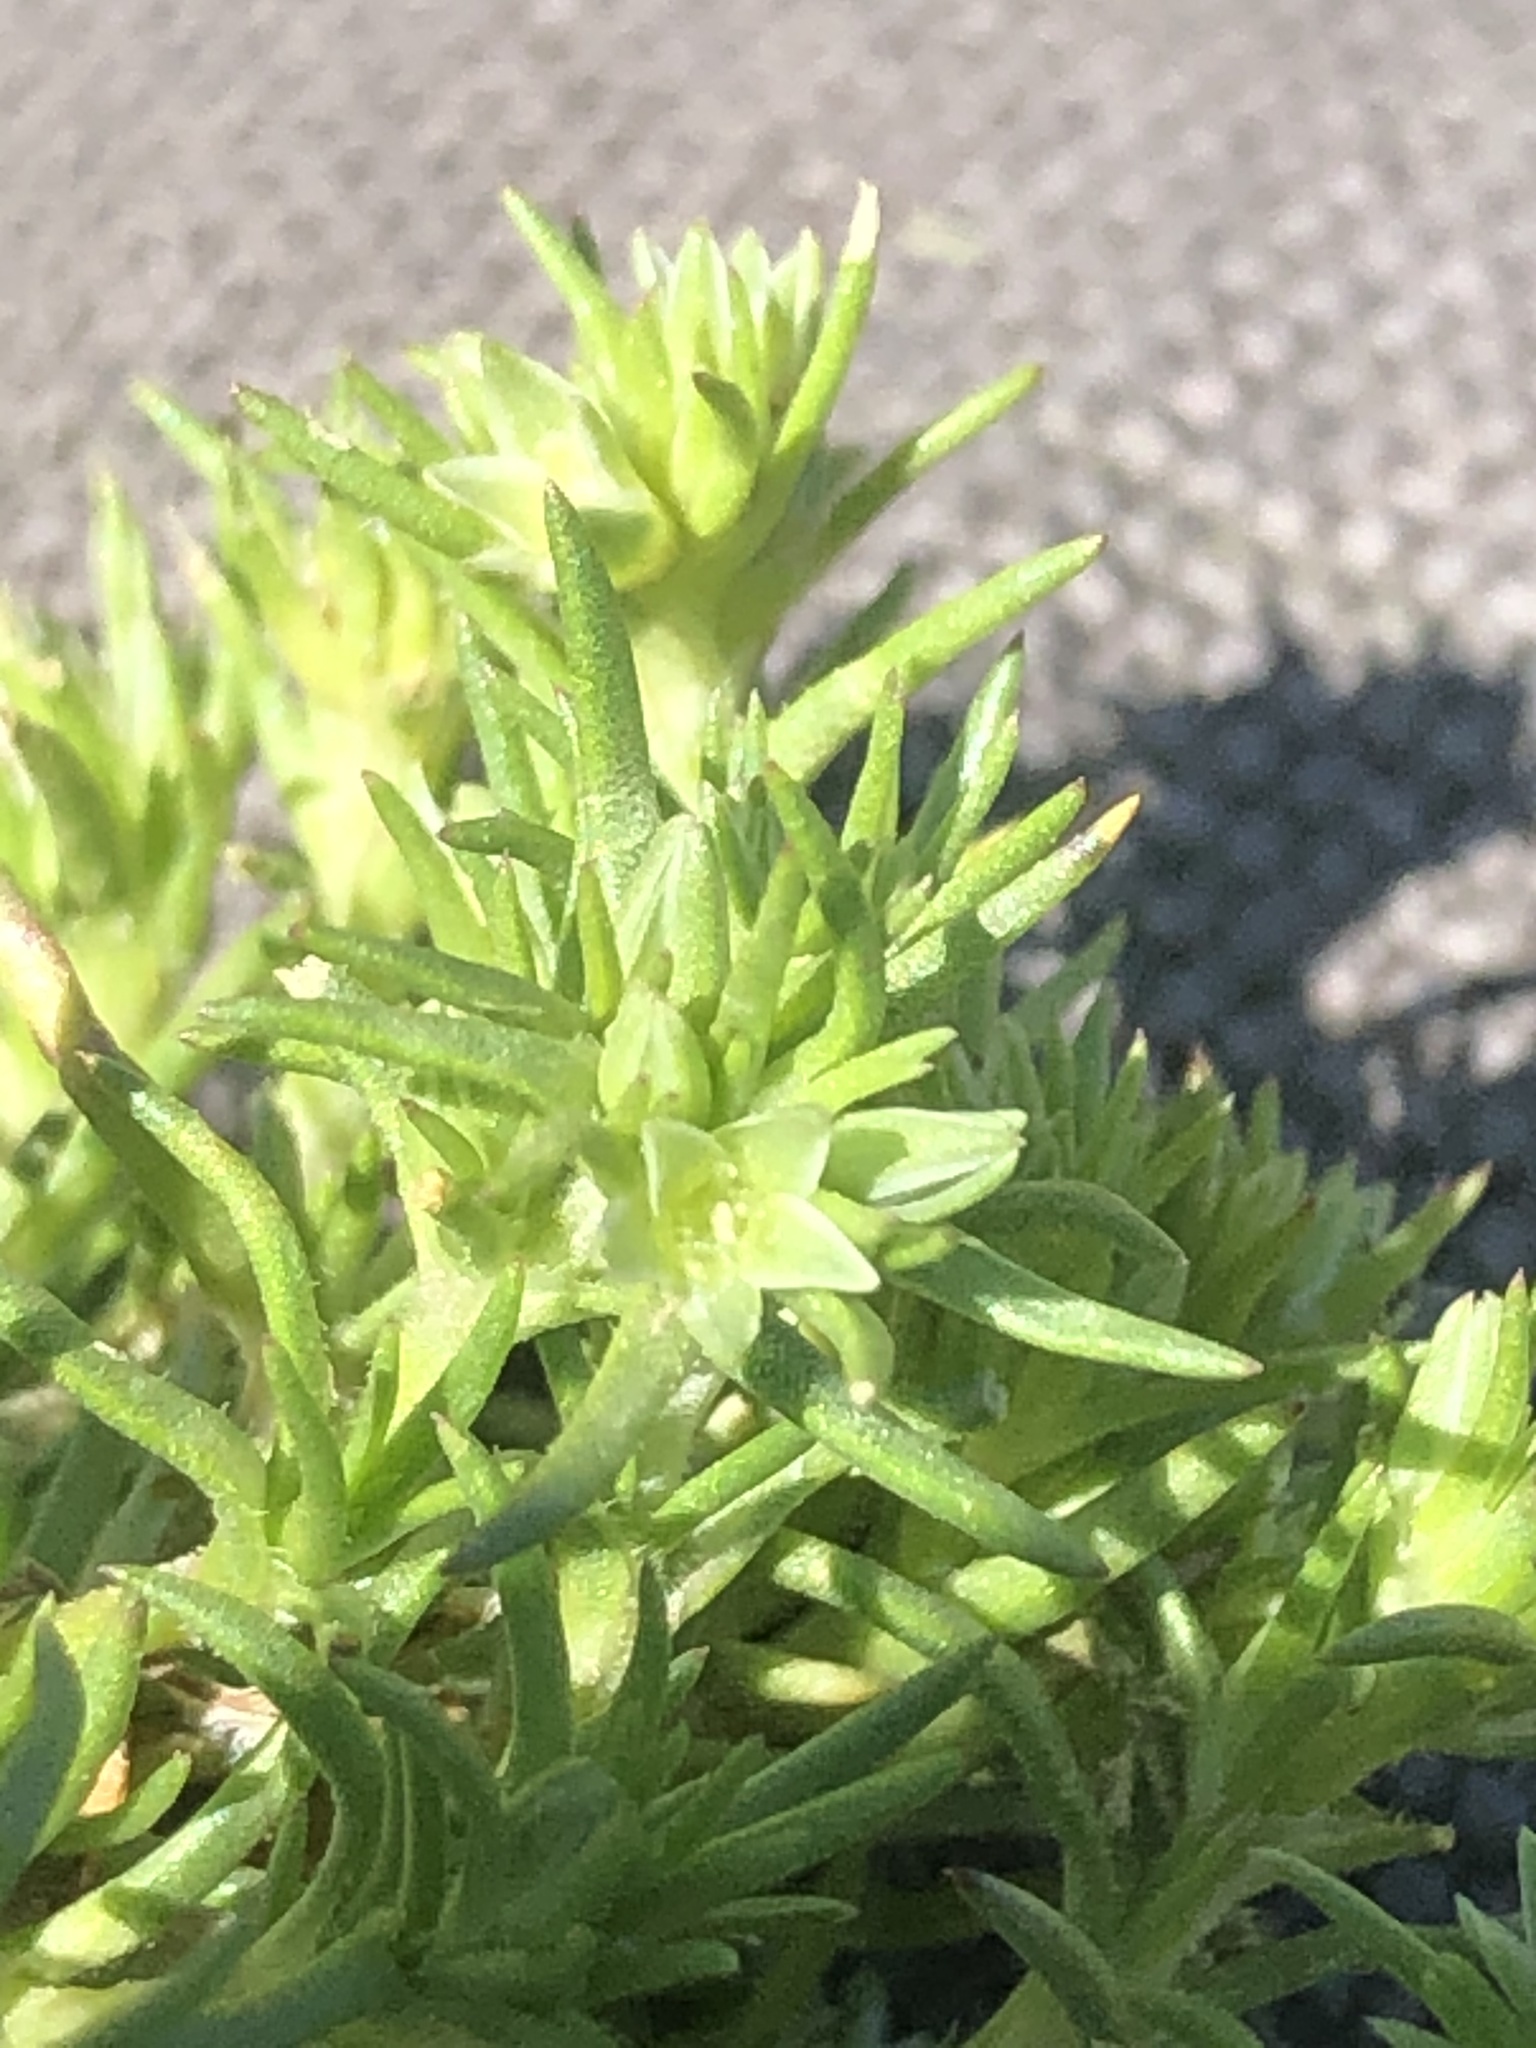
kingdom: Plantae
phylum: Tracheophyta
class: Magnoliopsida
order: Caryophyllales
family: Caryophyllaceae
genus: Scleranthus
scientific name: Scleranthus annuus
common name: Annual knawel
